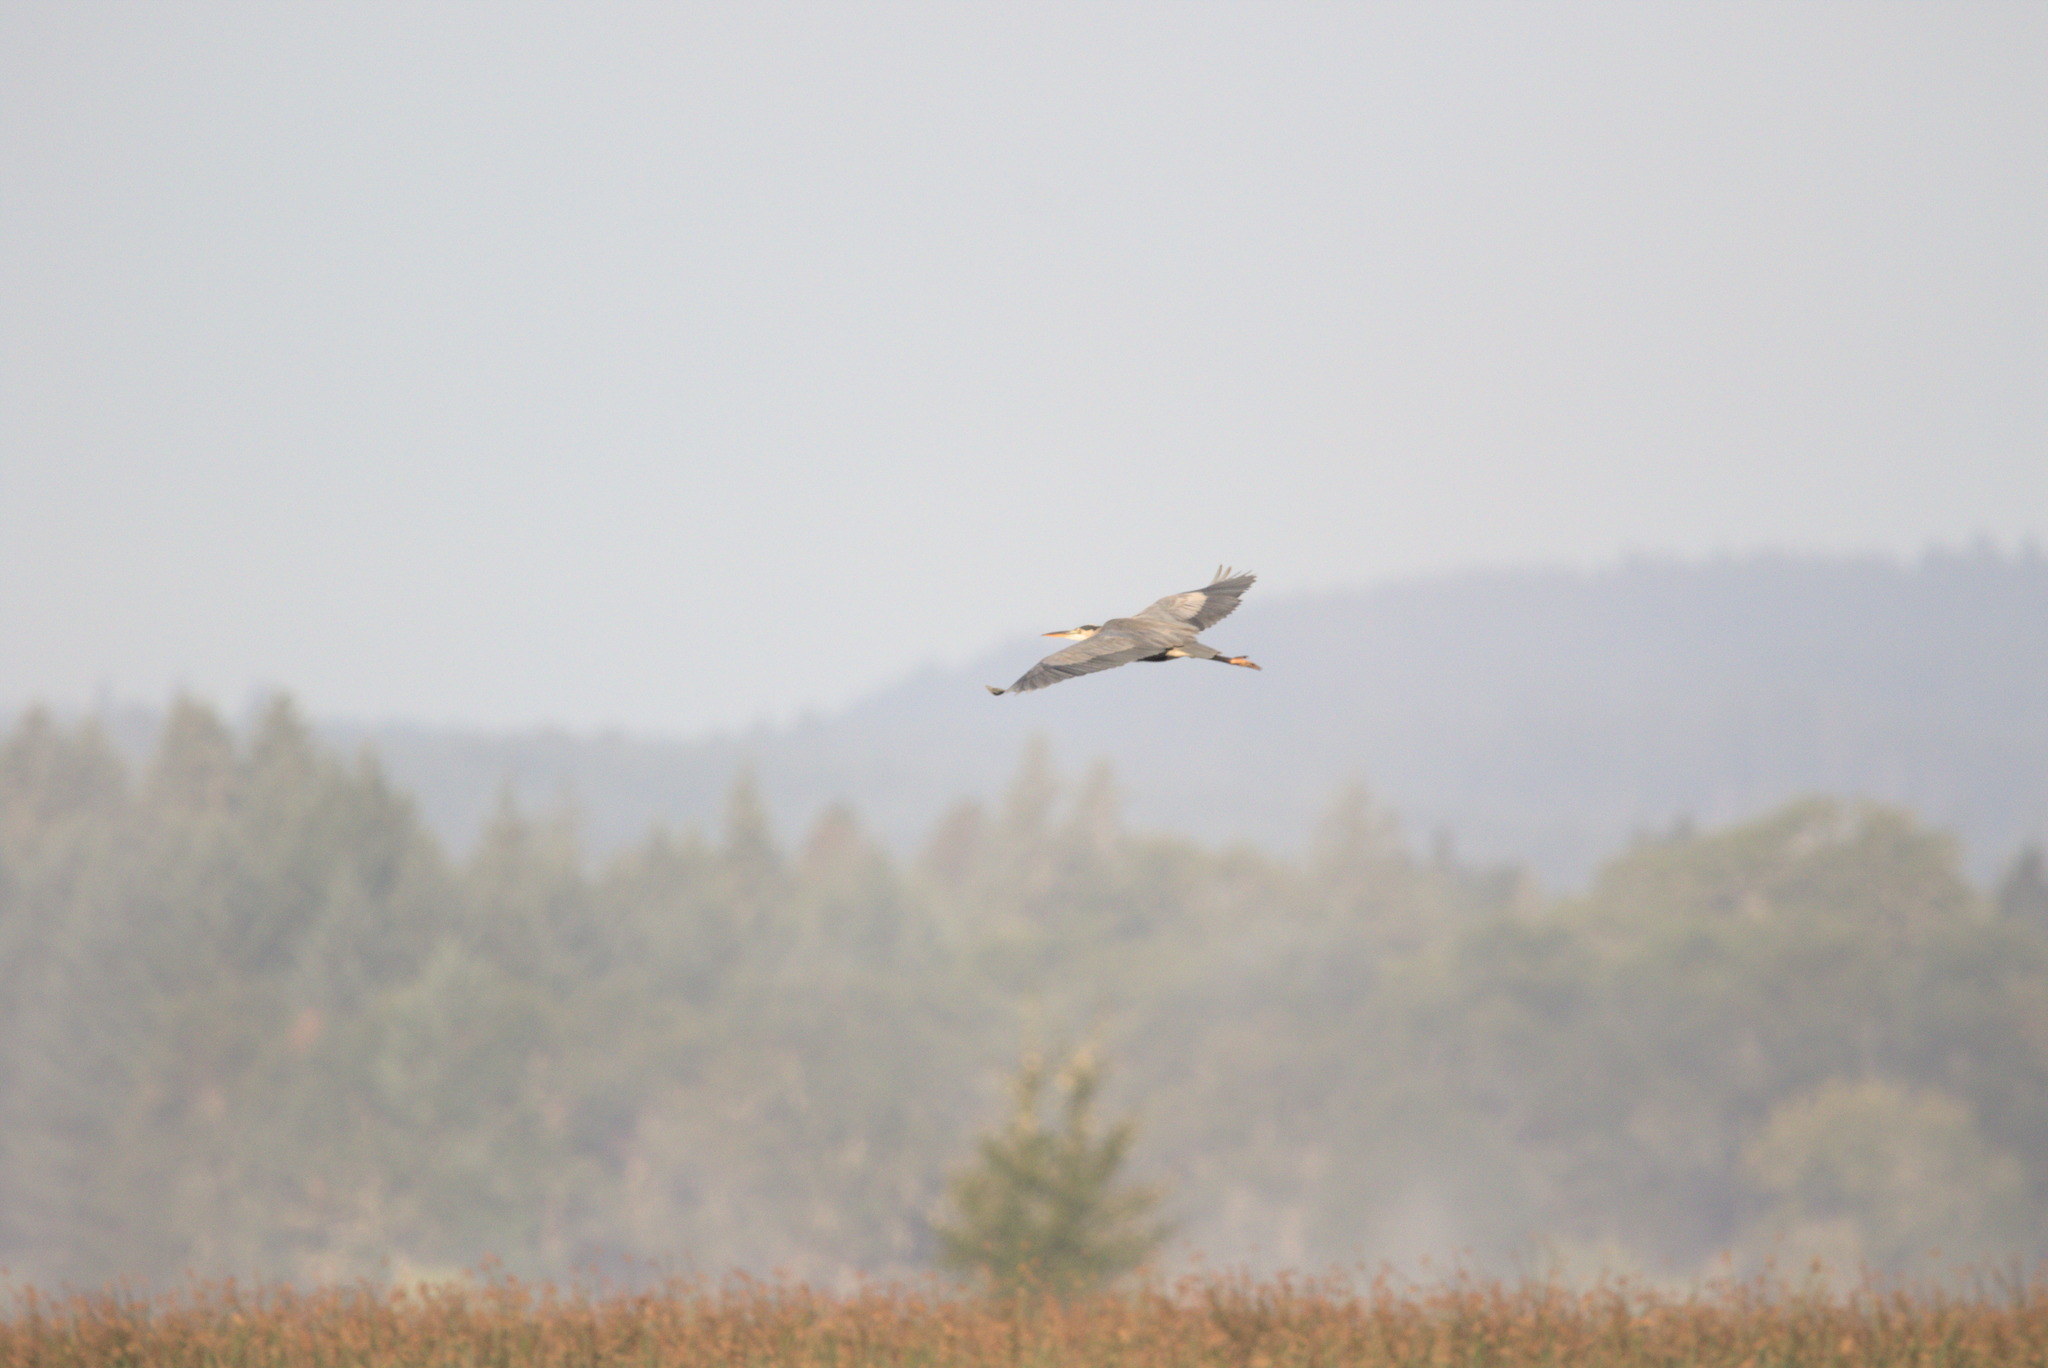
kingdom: Animalia
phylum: Chordata
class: Aves
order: Pelecaniformes
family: Ardeidae
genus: Ardea
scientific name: Ardea herodias
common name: Great blue heron
